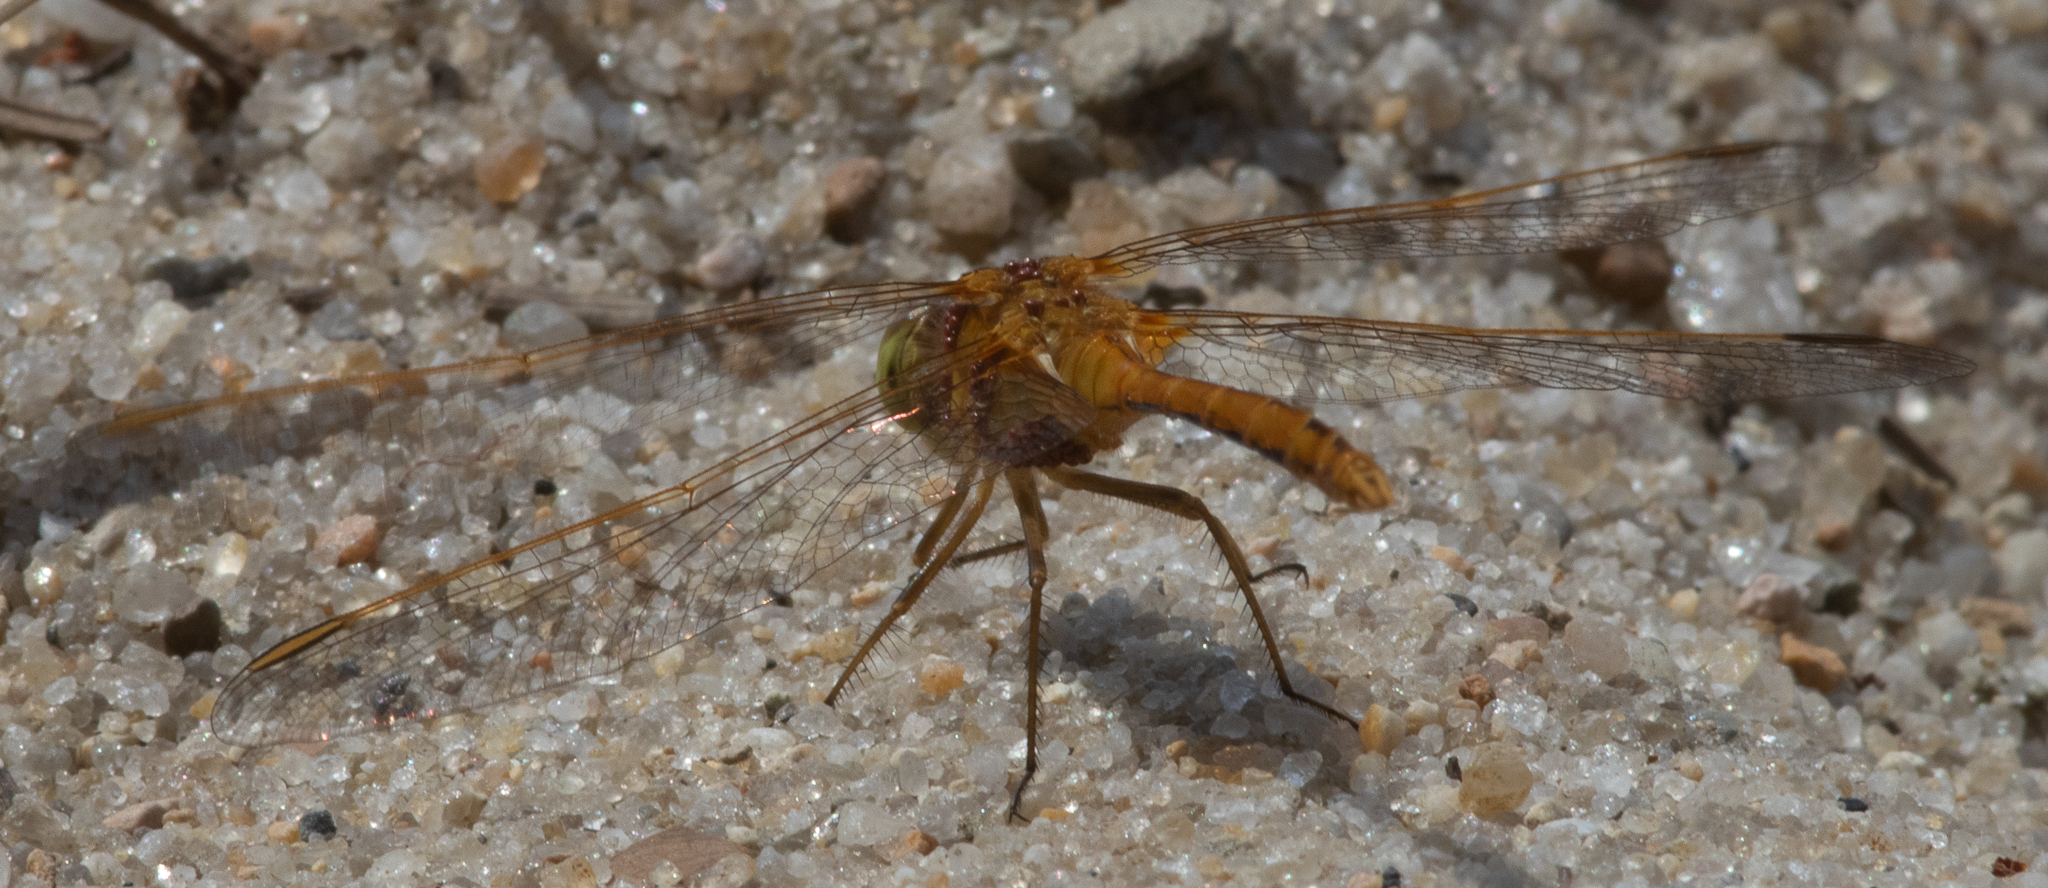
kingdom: Animalia
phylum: Arthropoda
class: Insecta
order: Odonata
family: Libellulidae
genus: Sympetrum
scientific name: Sympetrum costiferum
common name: Saffron-winged meadowhawk
